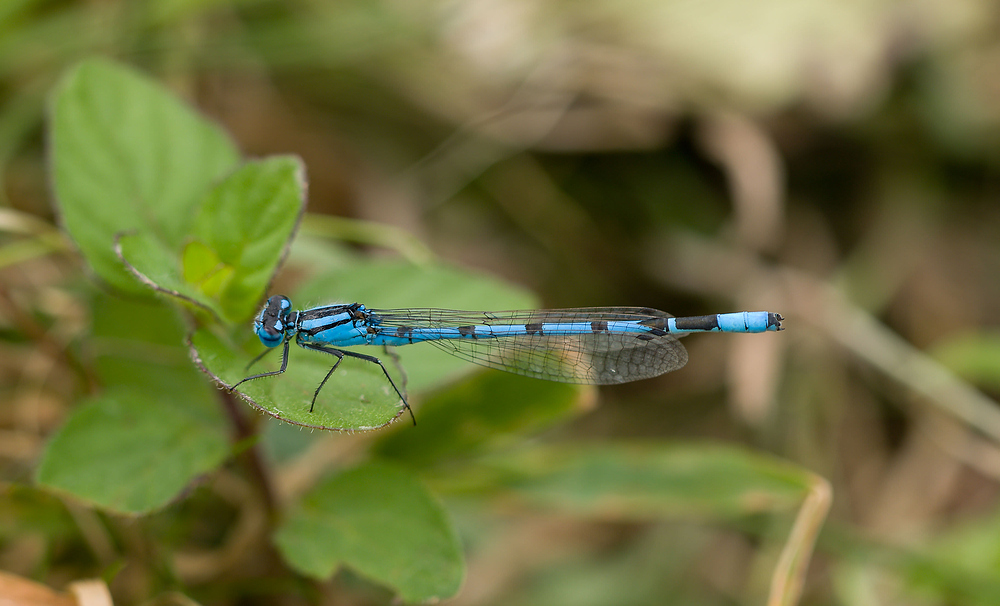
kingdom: Animalia
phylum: Arthropoda
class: Insecta
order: Odonata
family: Coenagrionidae
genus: Enallagma
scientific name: Enallagma cyathigerum
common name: Common blue damselfly
